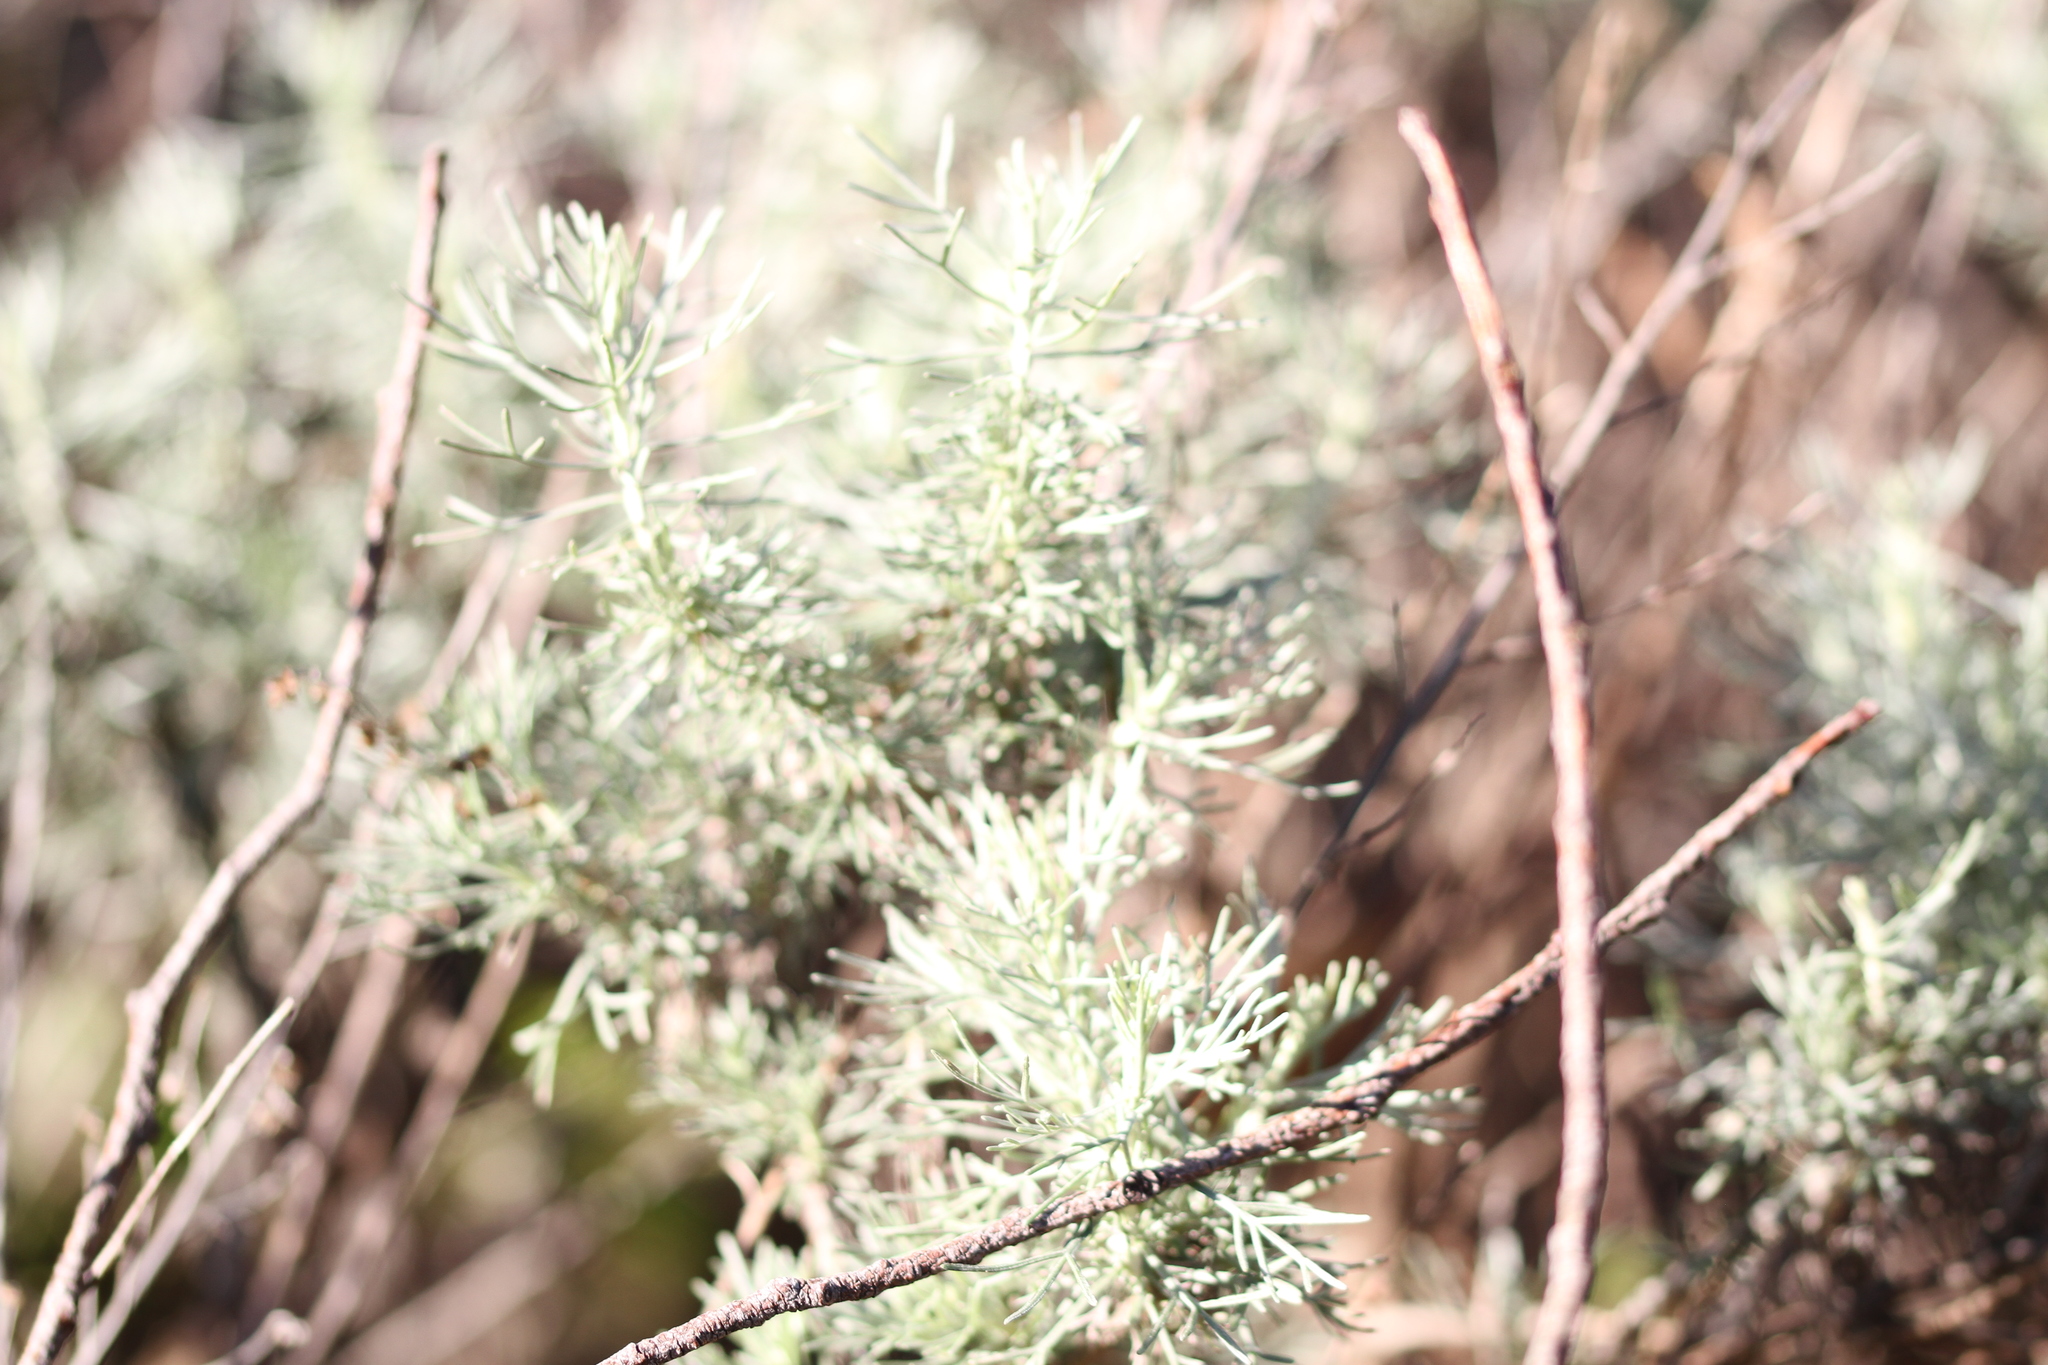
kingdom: Plantae
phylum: Tracheophyta
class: Magnoliopsida
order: Asterales
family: Asteraceae
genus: Artemisia
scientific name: Artemisia californica
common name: California sagebrush
